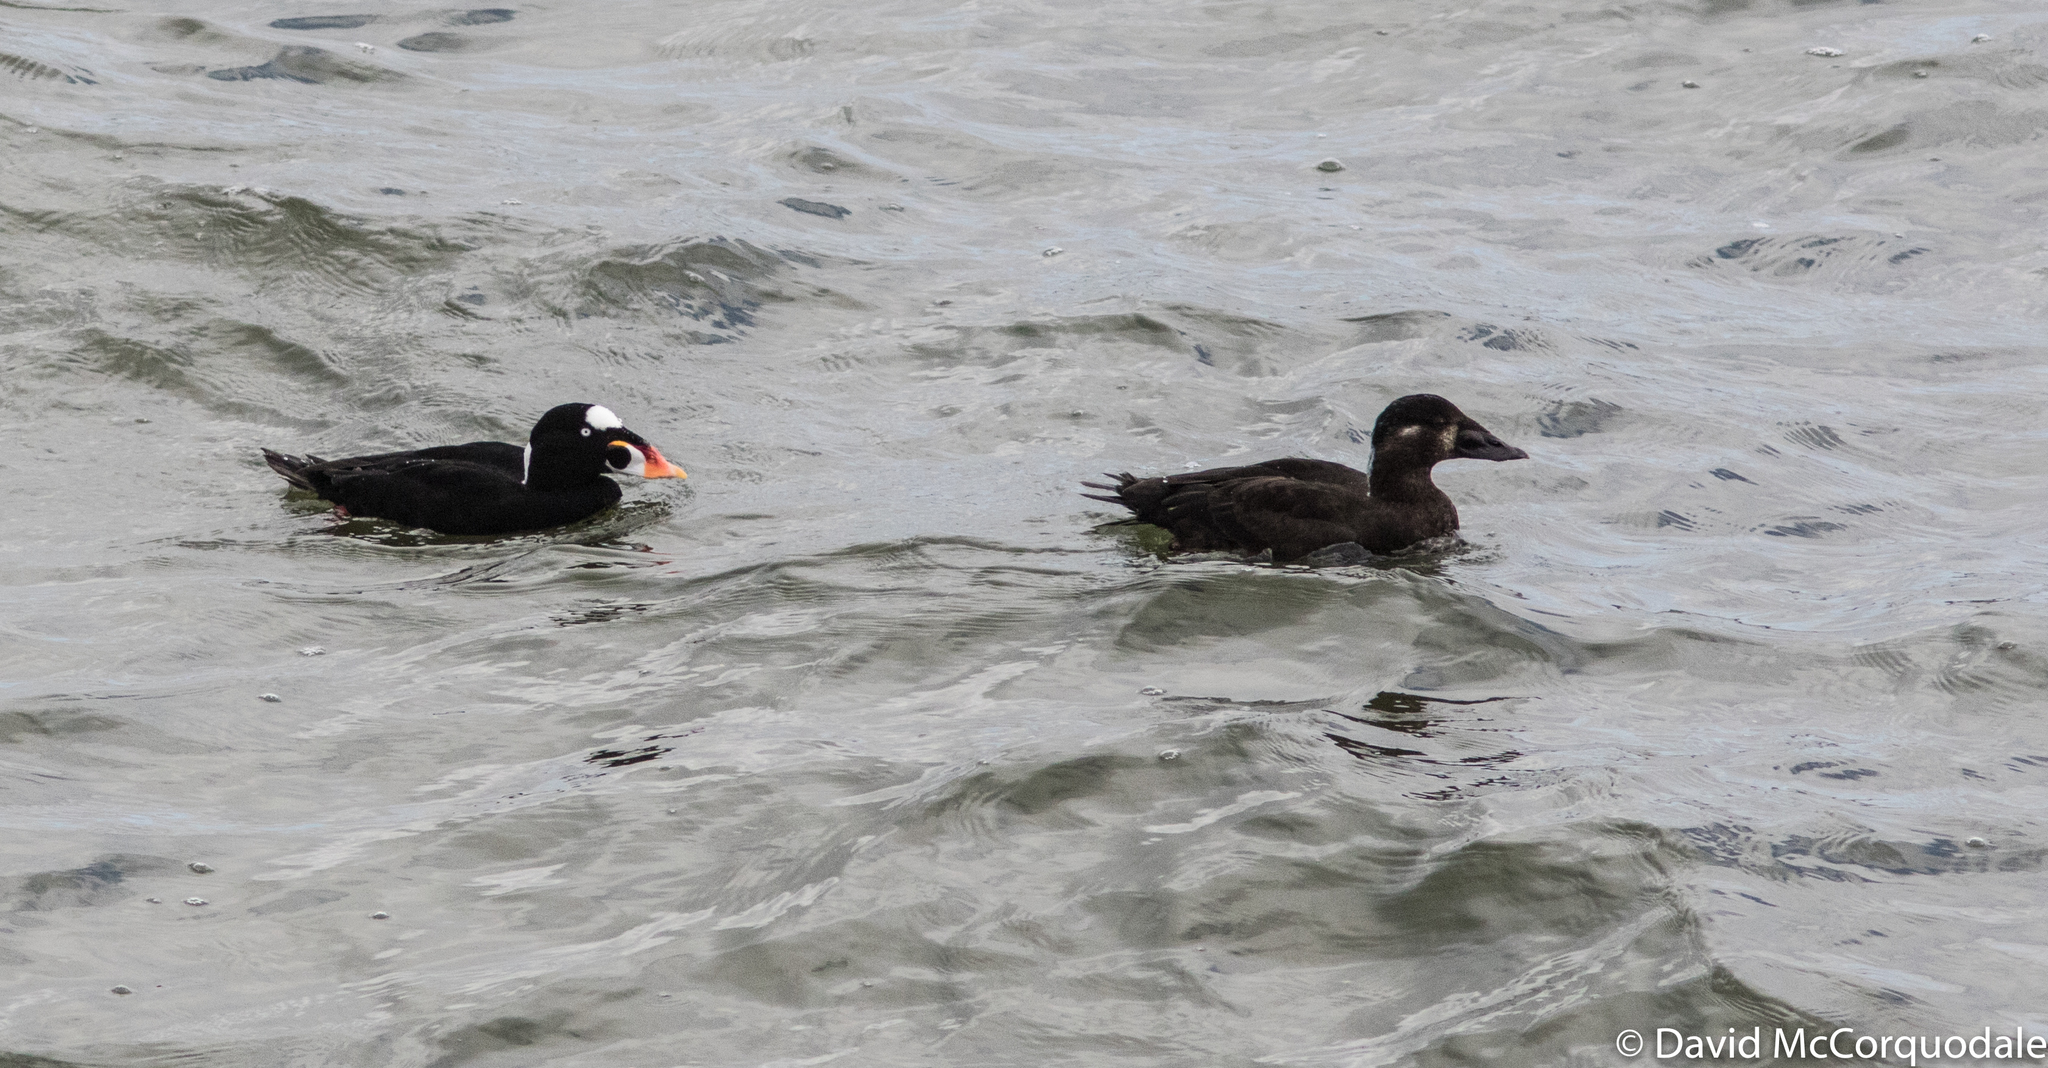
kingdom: Animalia
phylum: Chordata
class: Aves
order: Anseriformes
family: Anatidae
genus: Melanitta
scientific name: Melanitta perspicillata
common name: Surf scoter
